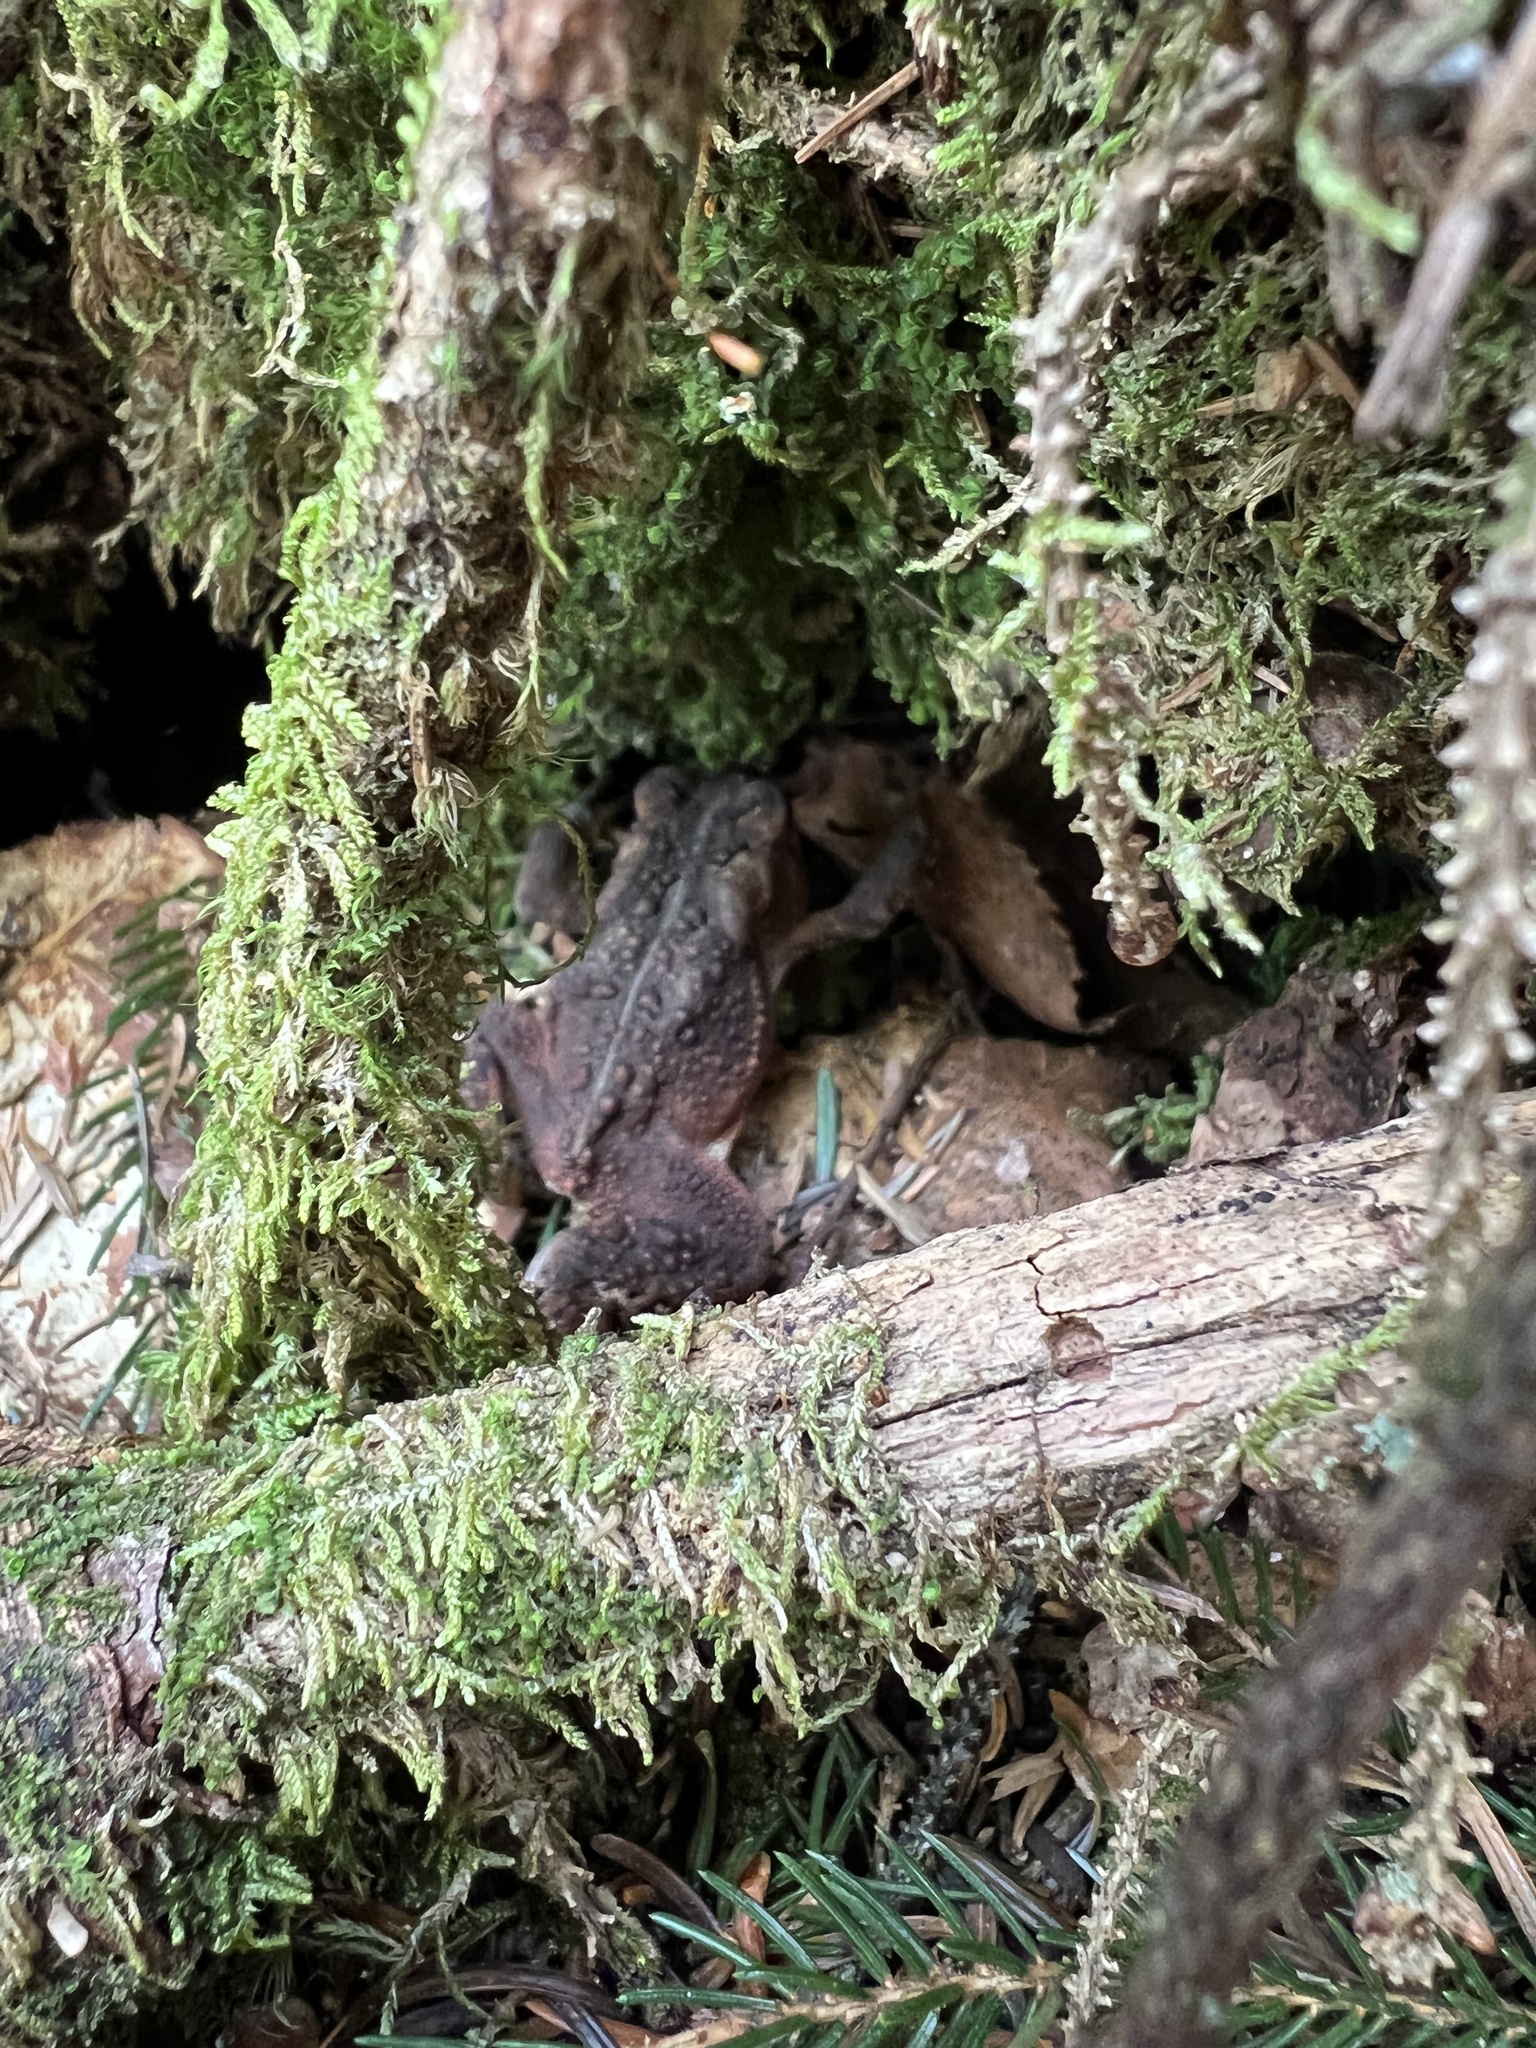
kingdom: Animalia
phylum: Chordata
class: Amphibia
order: Anura
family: Bufonidae
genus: Anaxyrus
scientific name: Anaxyrus americanus
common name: American toad
